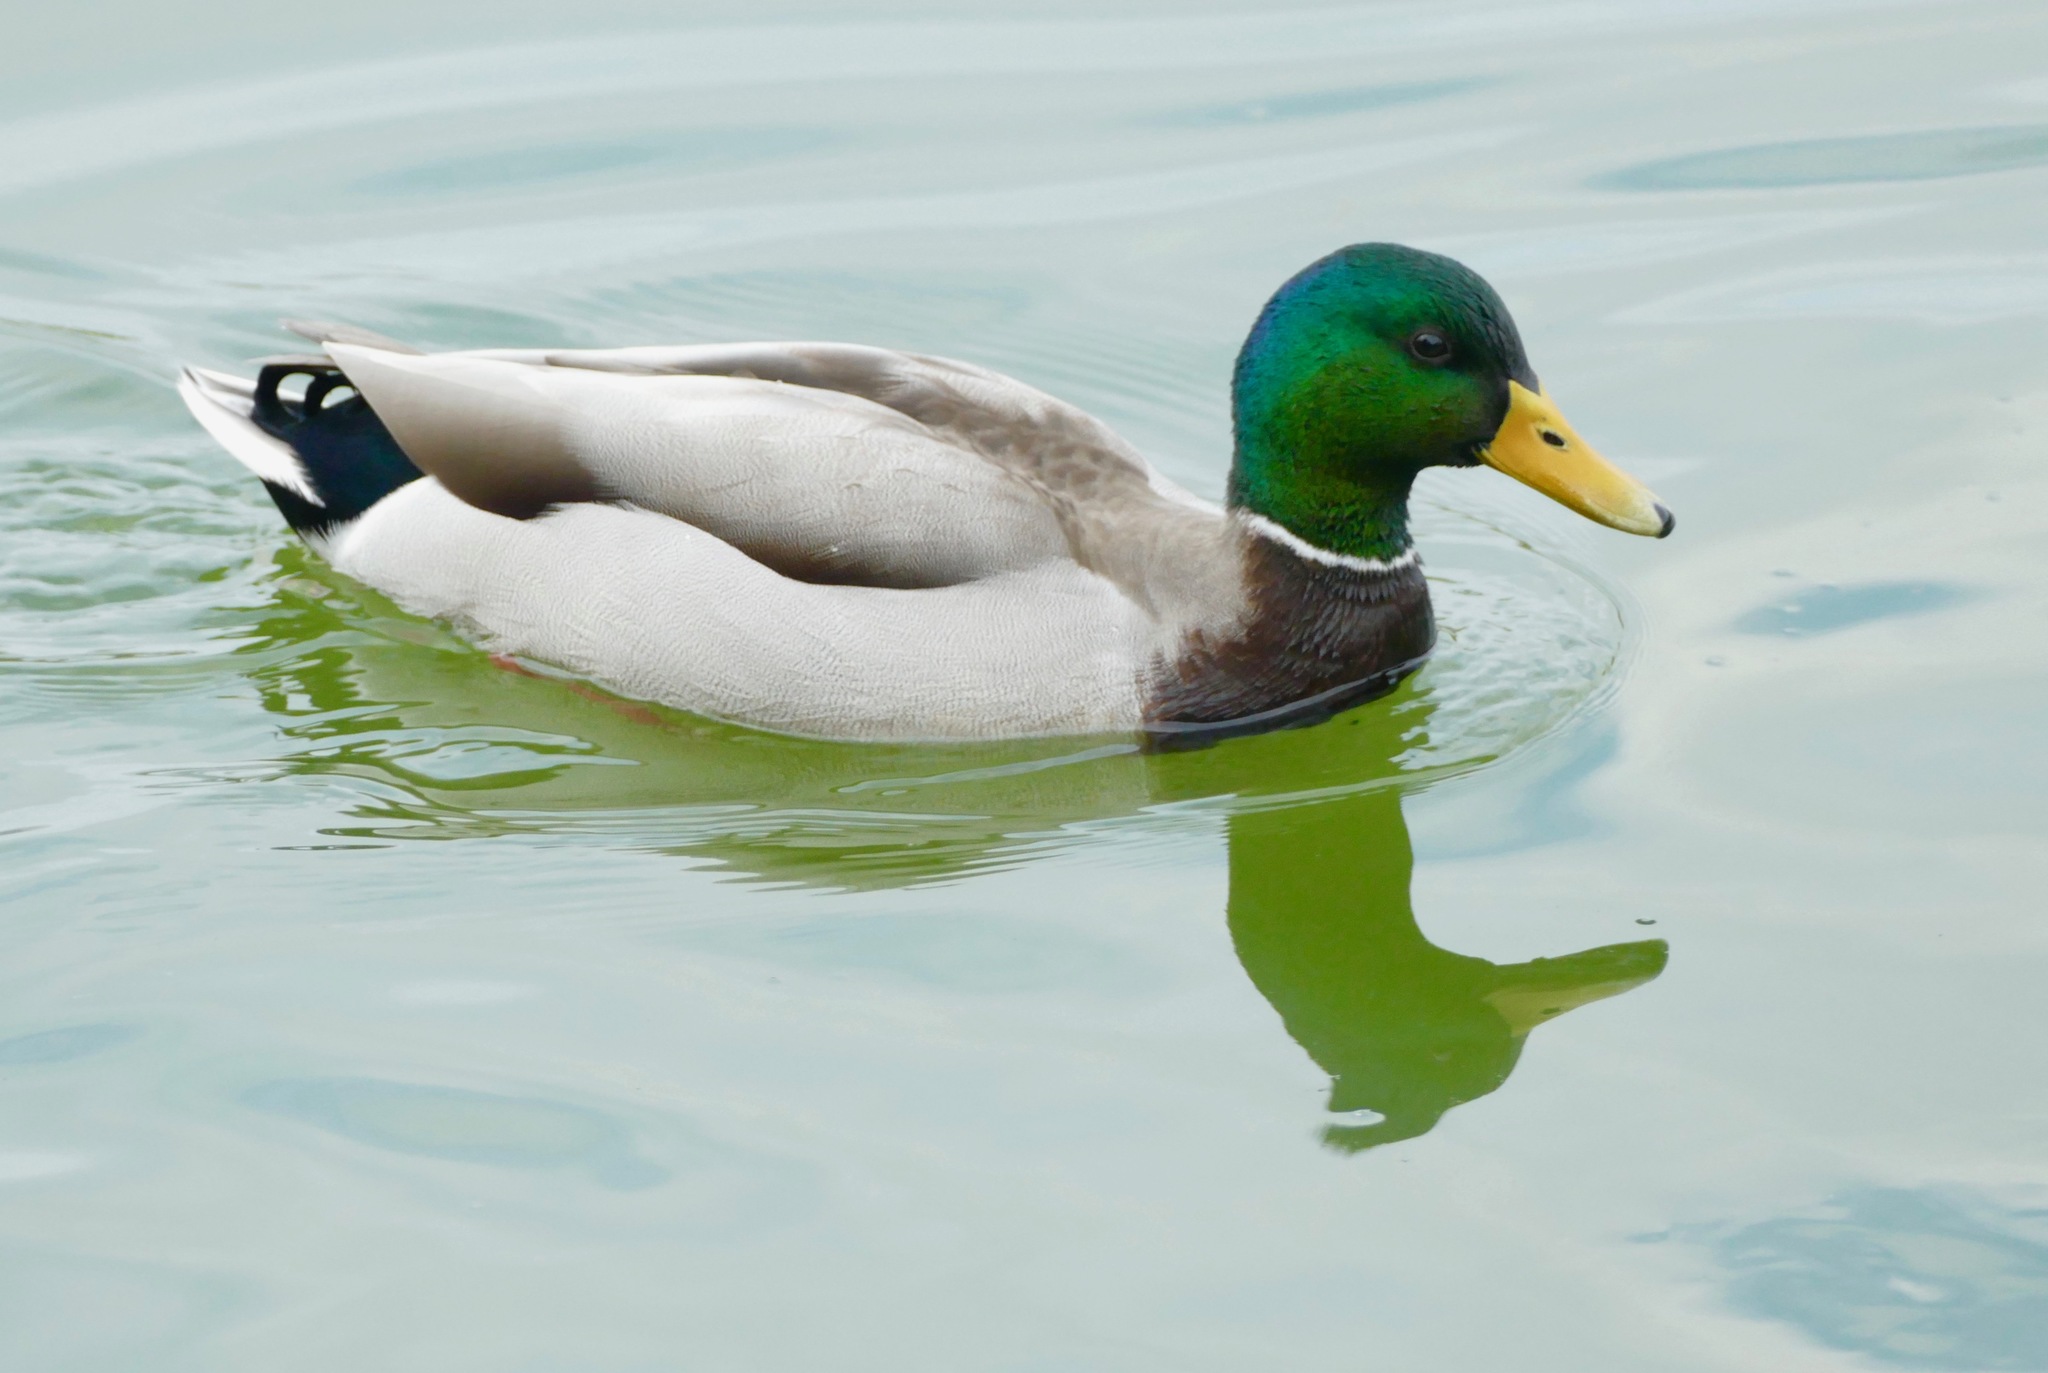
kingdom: Animalia
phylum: Chordata
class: Aves
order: Anseriformes
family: Anatidae
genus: Anas
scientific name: Anas platyrhynchos
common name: Mallard
